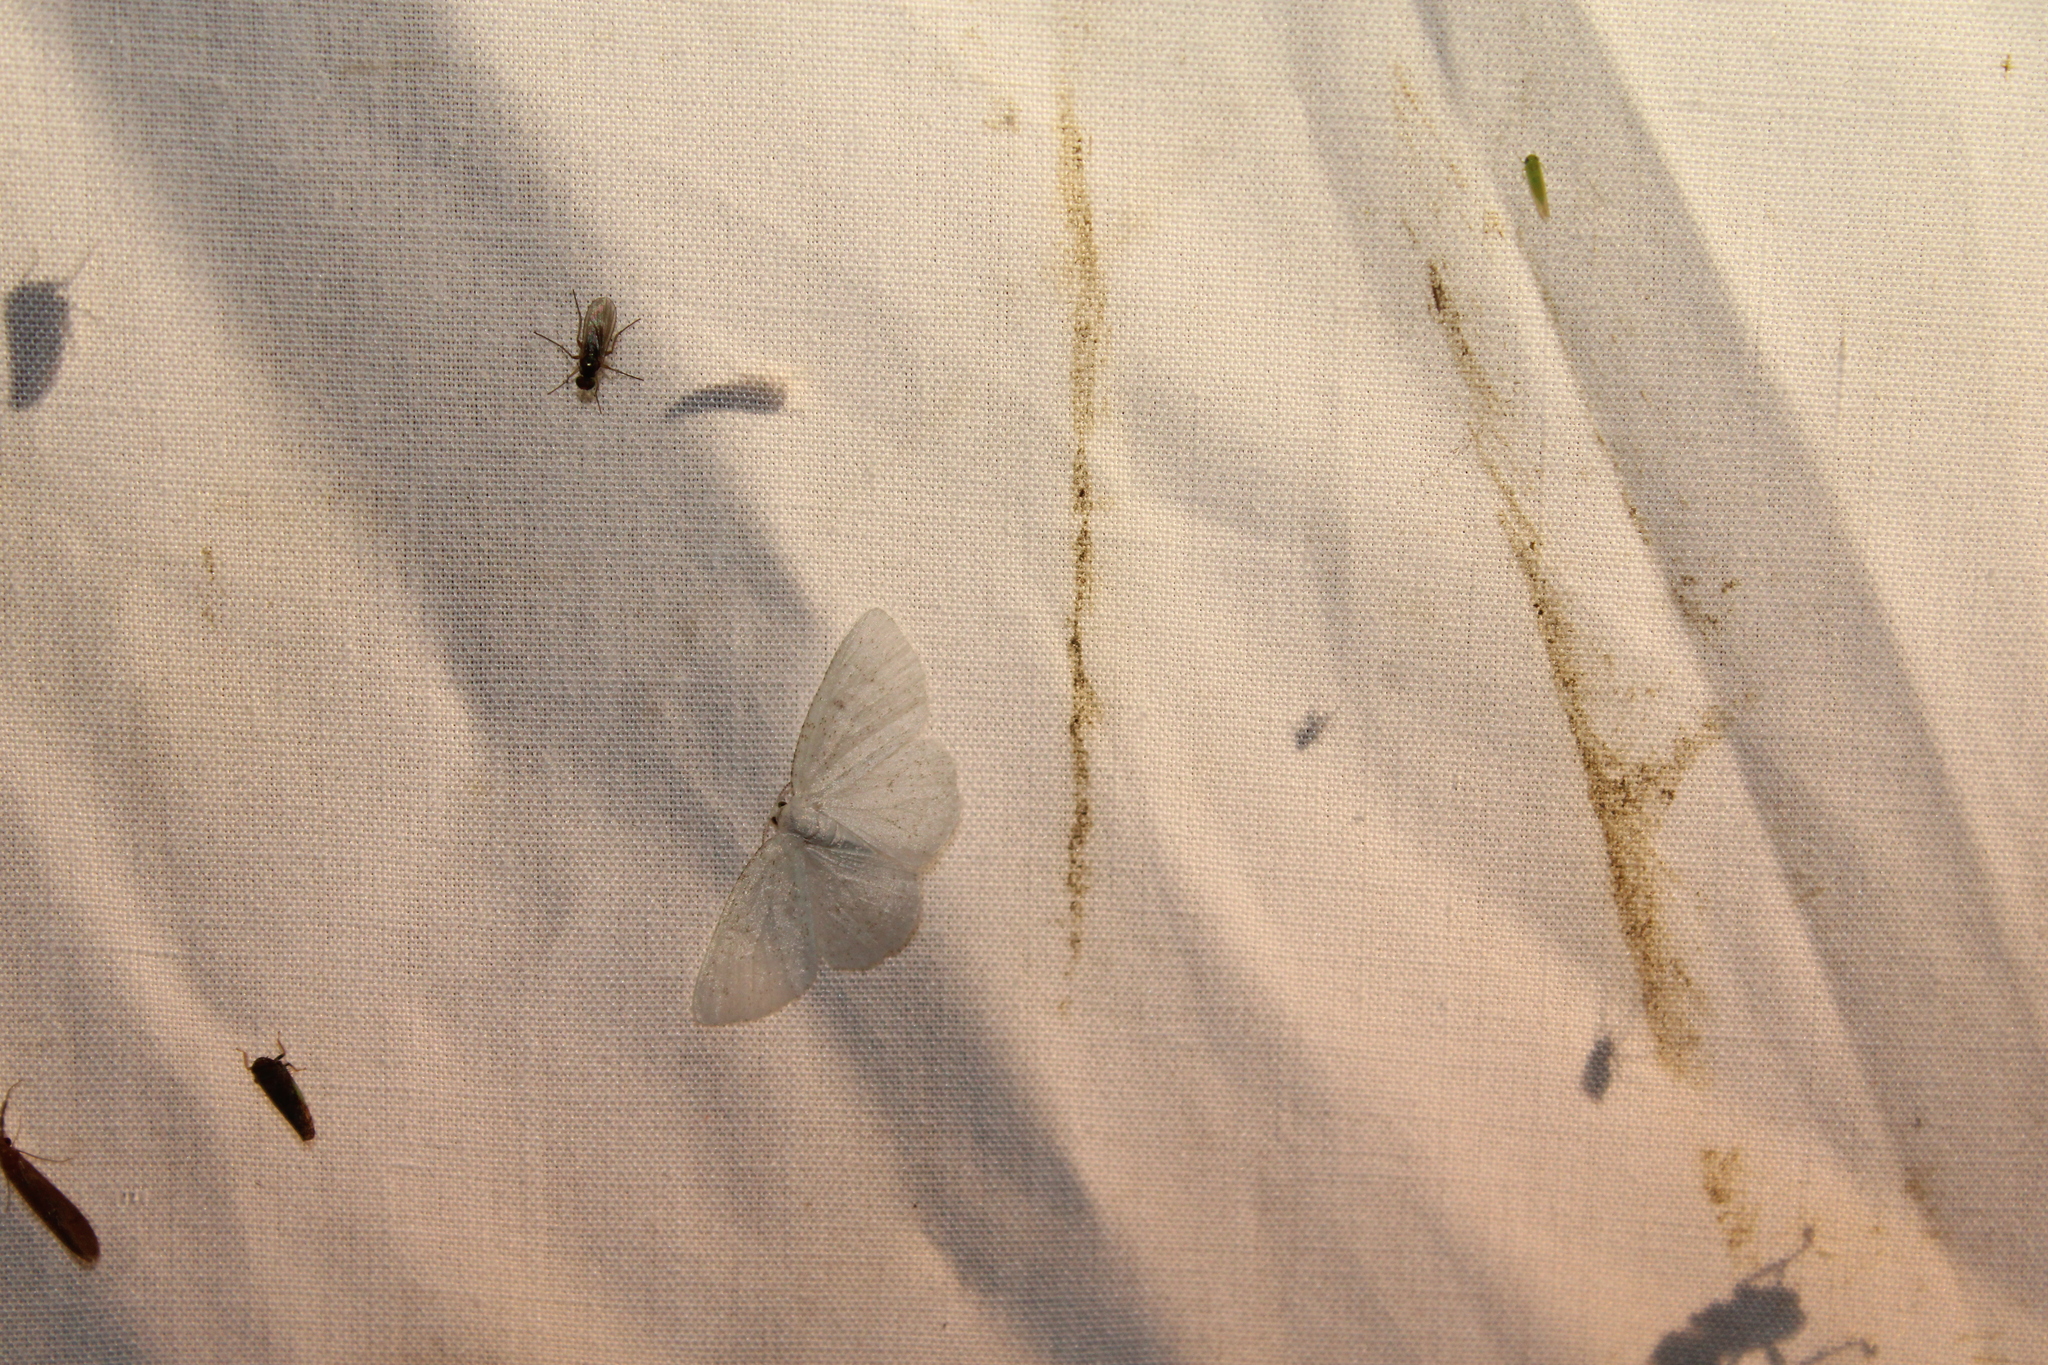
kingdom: Animalia
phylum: Arthropoda
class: Insecta
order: Lepidoptera
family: Geometridae
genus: Protitame
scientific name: Protitame virginalis
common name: Virgin moth
